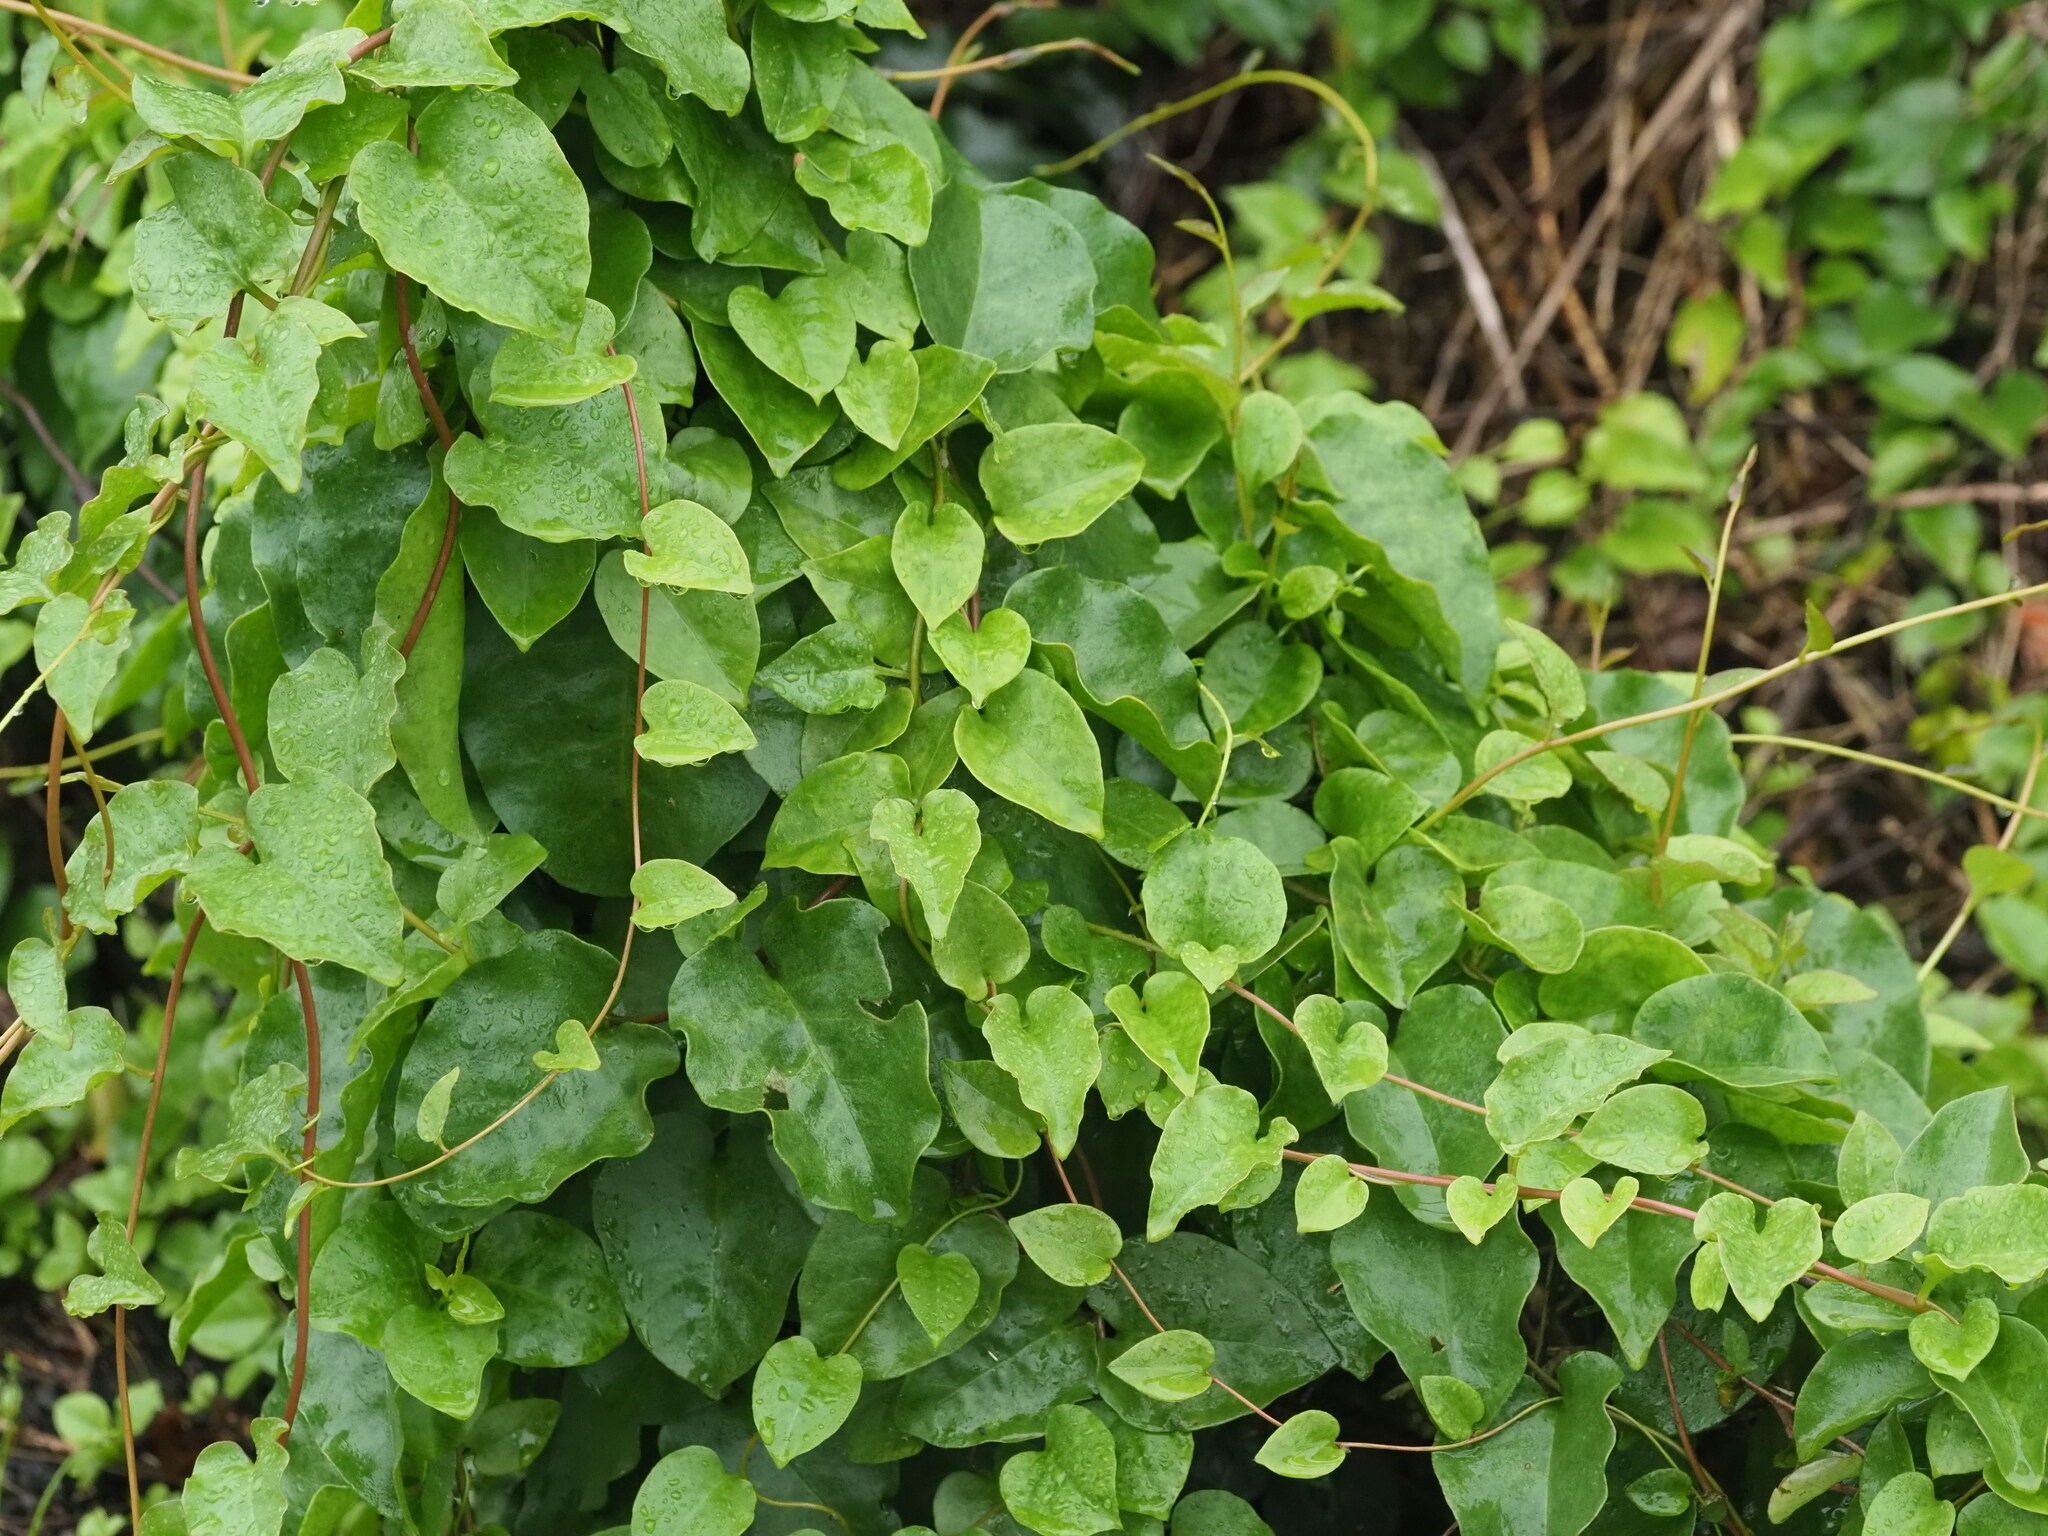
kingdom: Plantae
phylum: Tracheophyta
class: Magnoliopsida
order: Caryophyllales
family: Basellaceae
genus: Anredera
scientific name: Anredera cordifolia
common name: Heartleaf madeiravine
